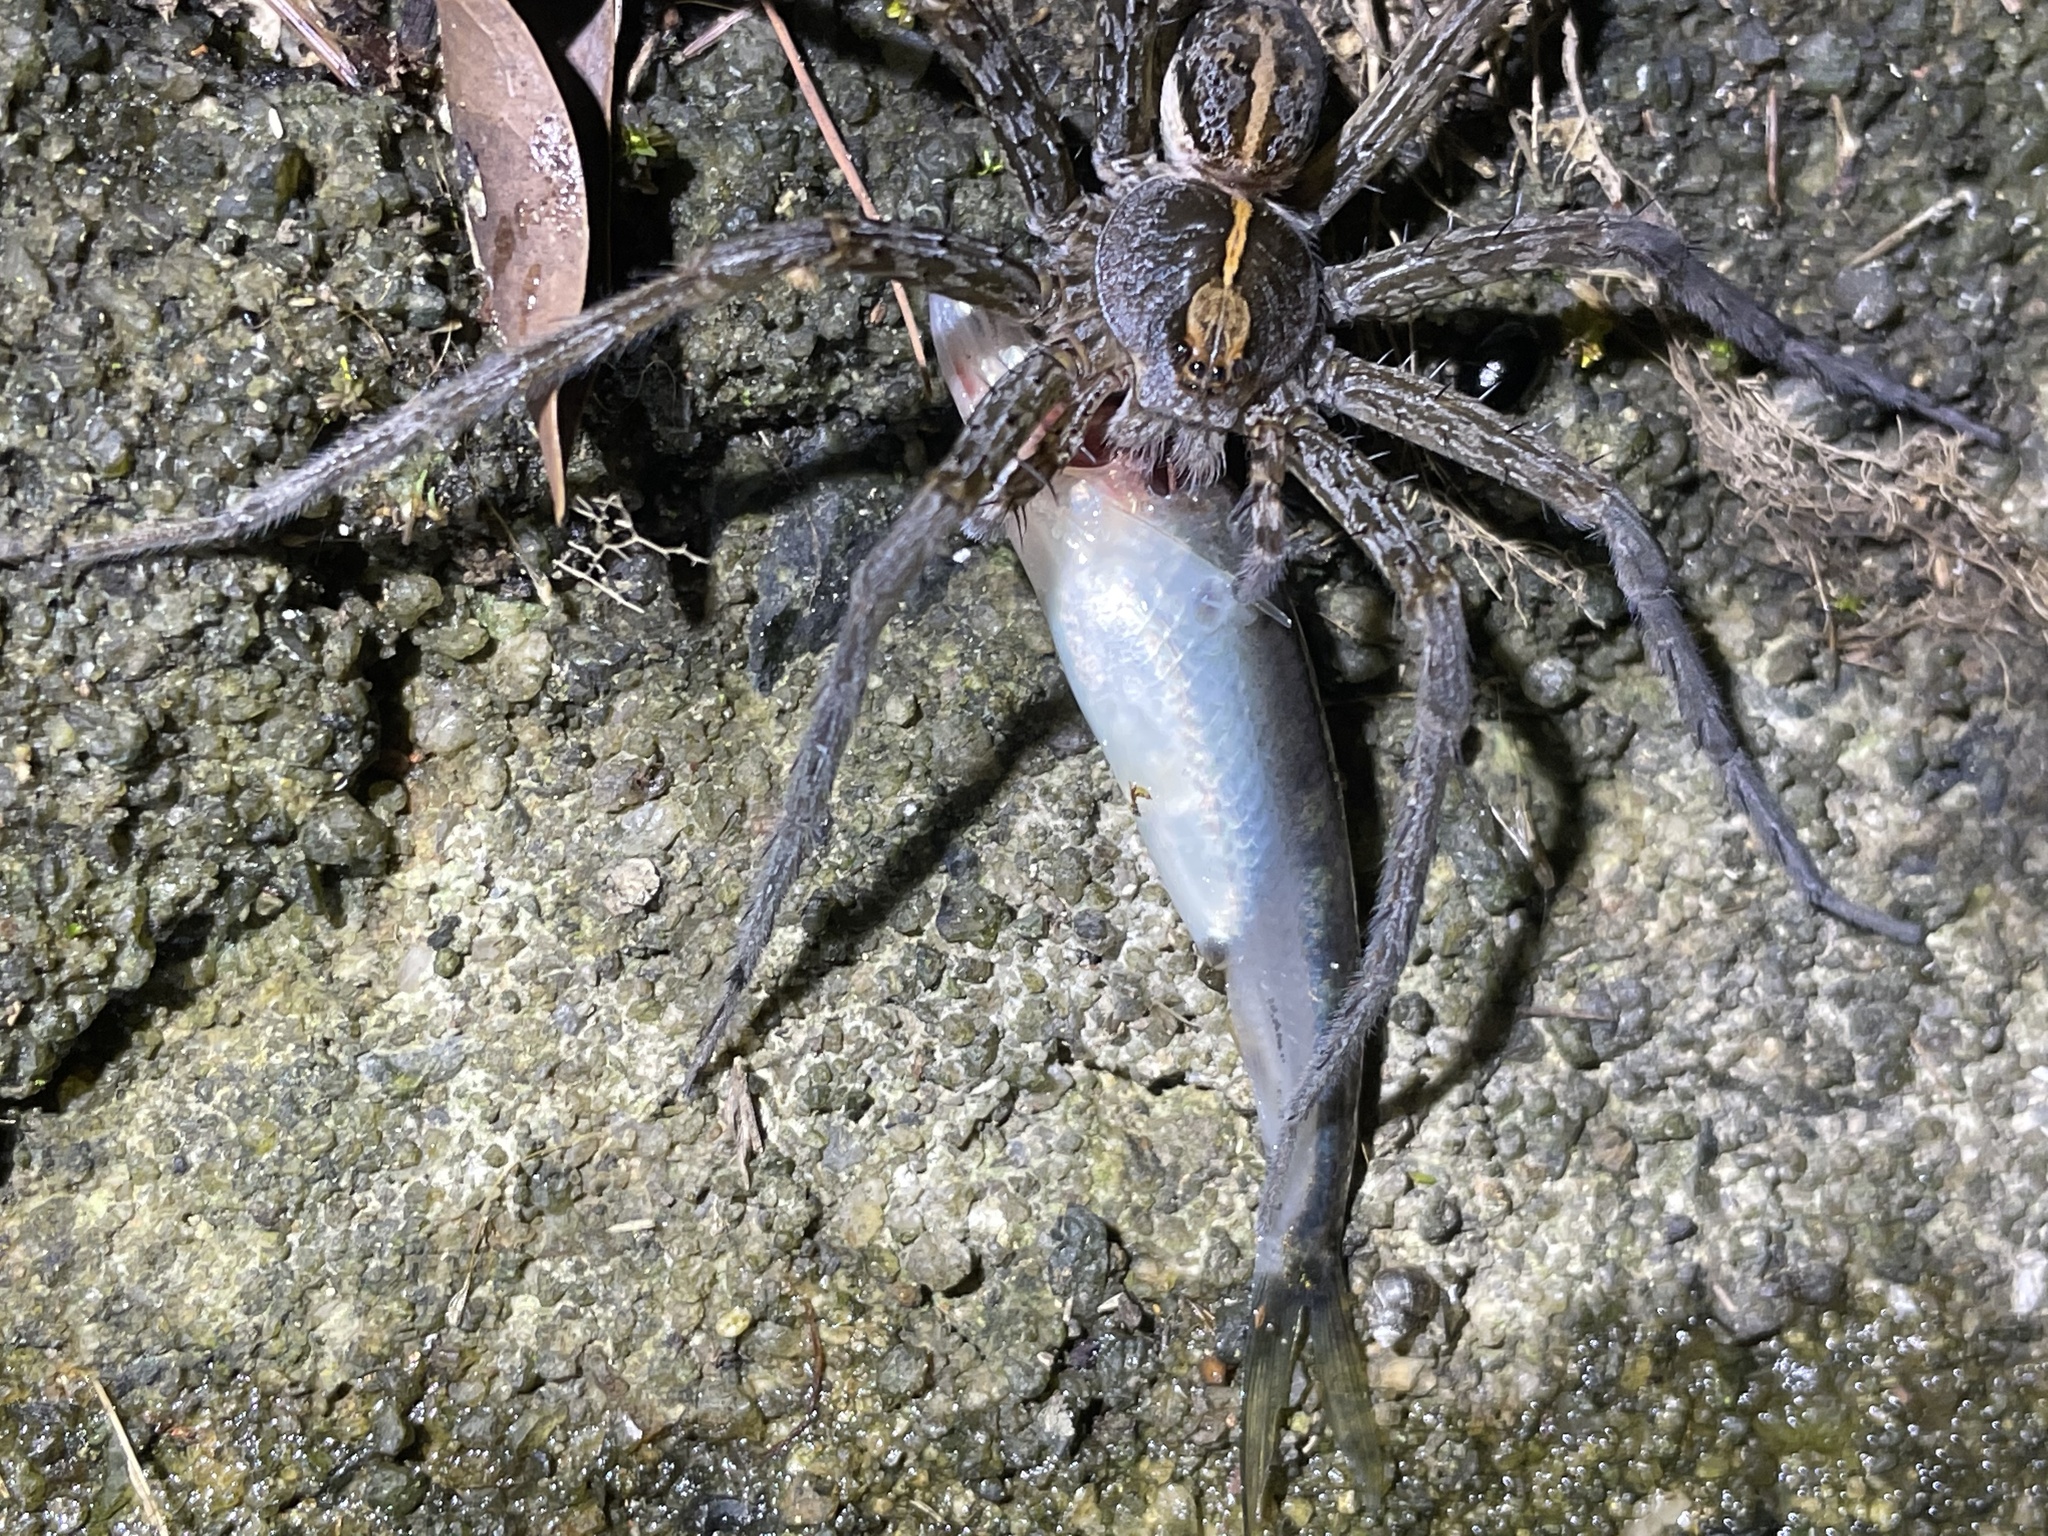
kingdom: Animalia
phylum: Arthropoda
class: Arachnida
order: Araneae
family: Pisauridae
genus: Dolomedes
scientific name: Dolomedes mizhoanus
